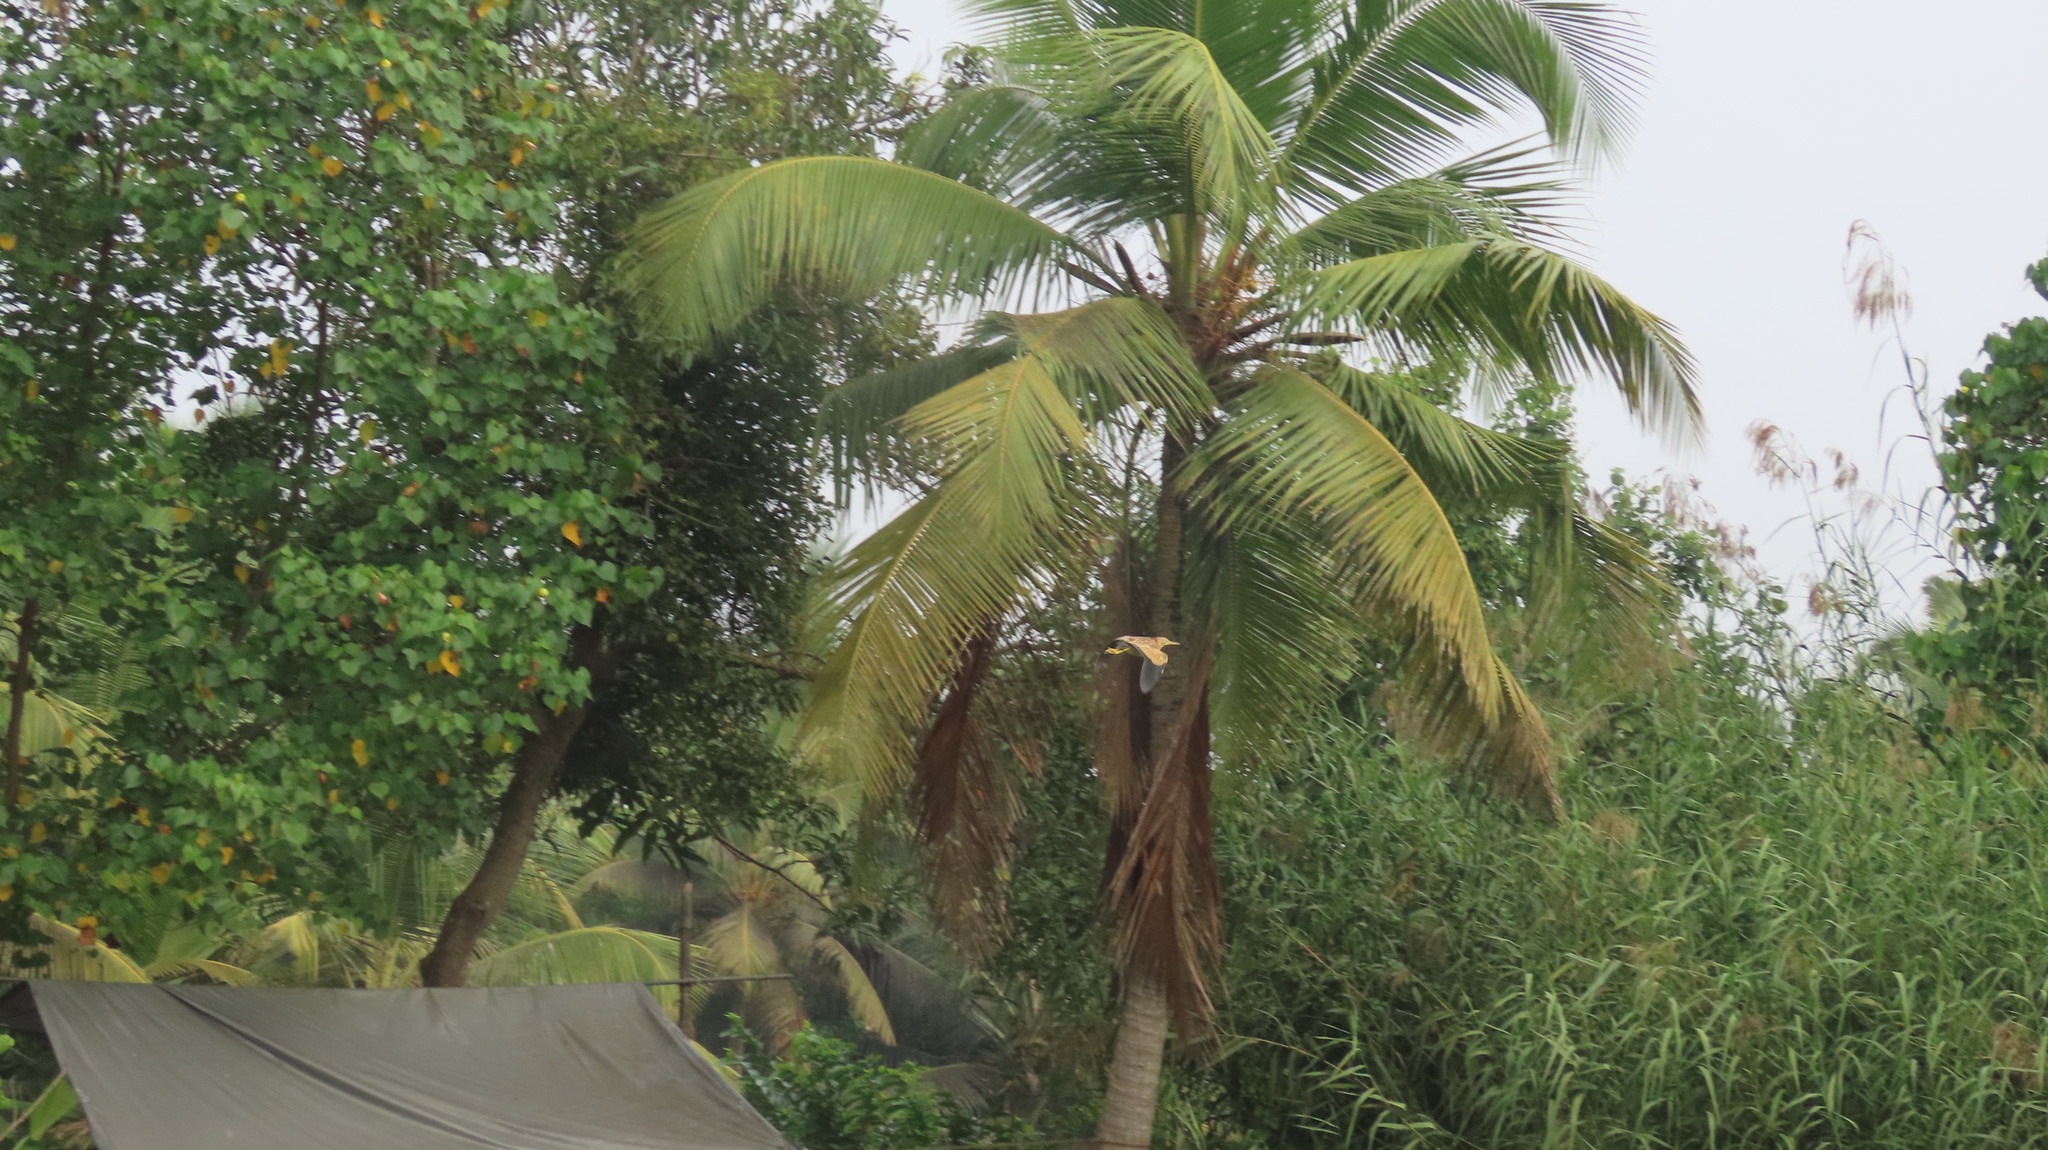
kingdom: Animalia
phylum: Chordata
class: Aves
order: Pelecaniformes
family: Ardeidae
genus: Ixobrychus
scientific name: Ixobrychus sinensis
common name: Yellow bittern
